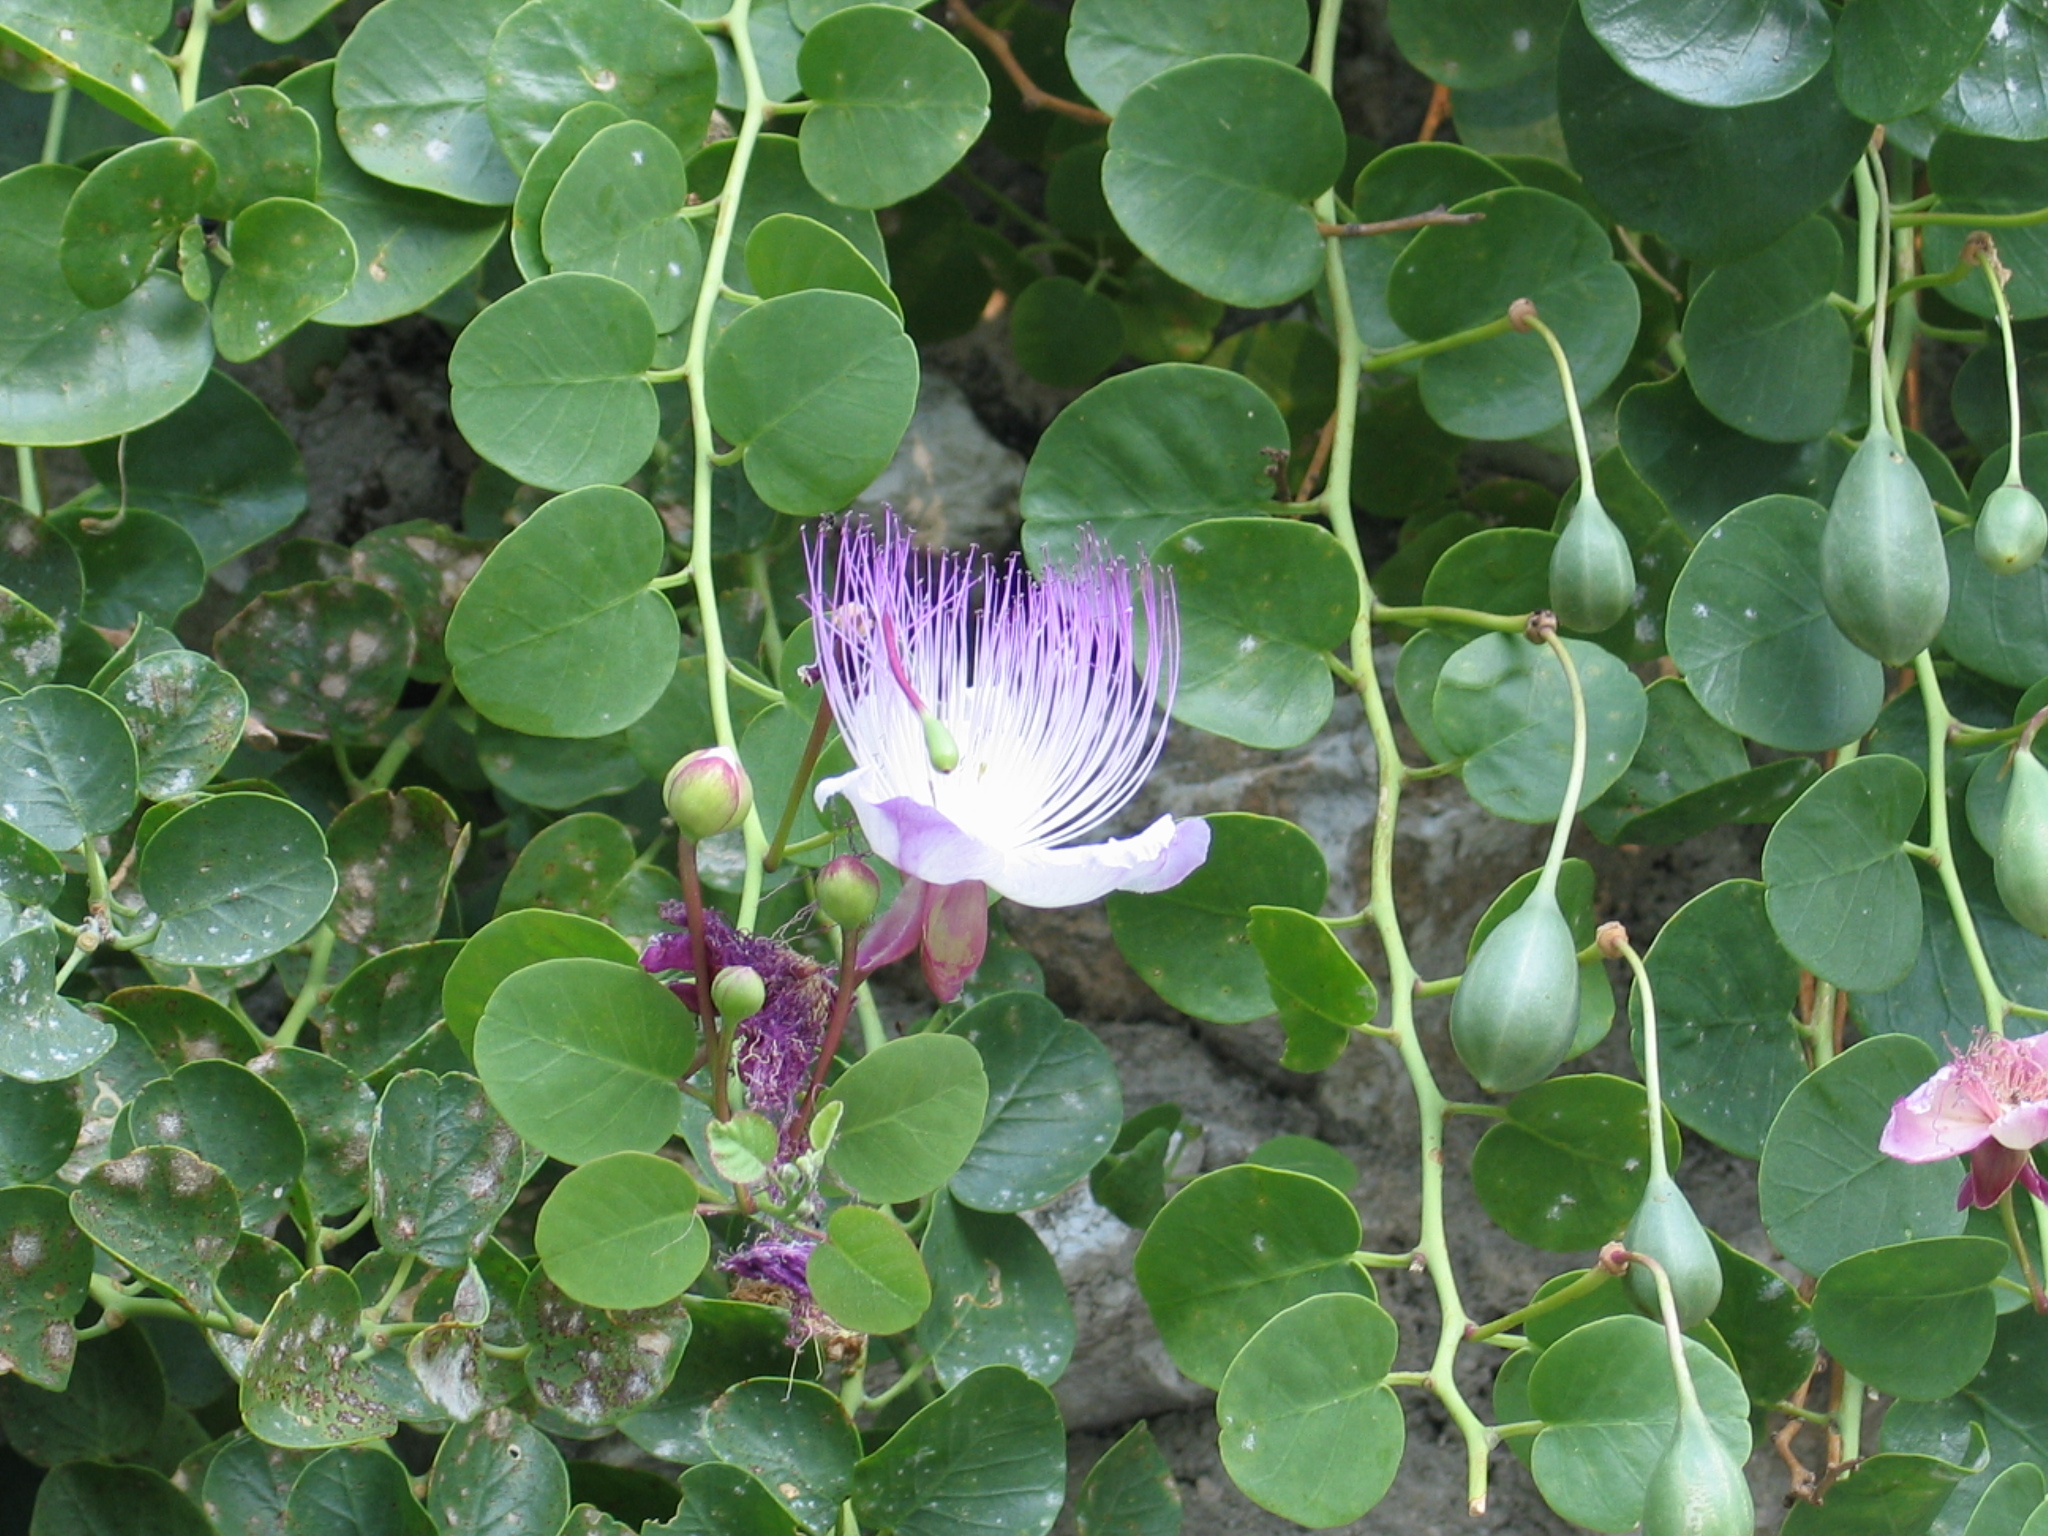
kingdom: Plantae
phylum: Tracheophyta
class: Magnoliopsida
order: Brassicales
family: Capparaceae
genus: Capparis
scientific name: Capparis orientalis
